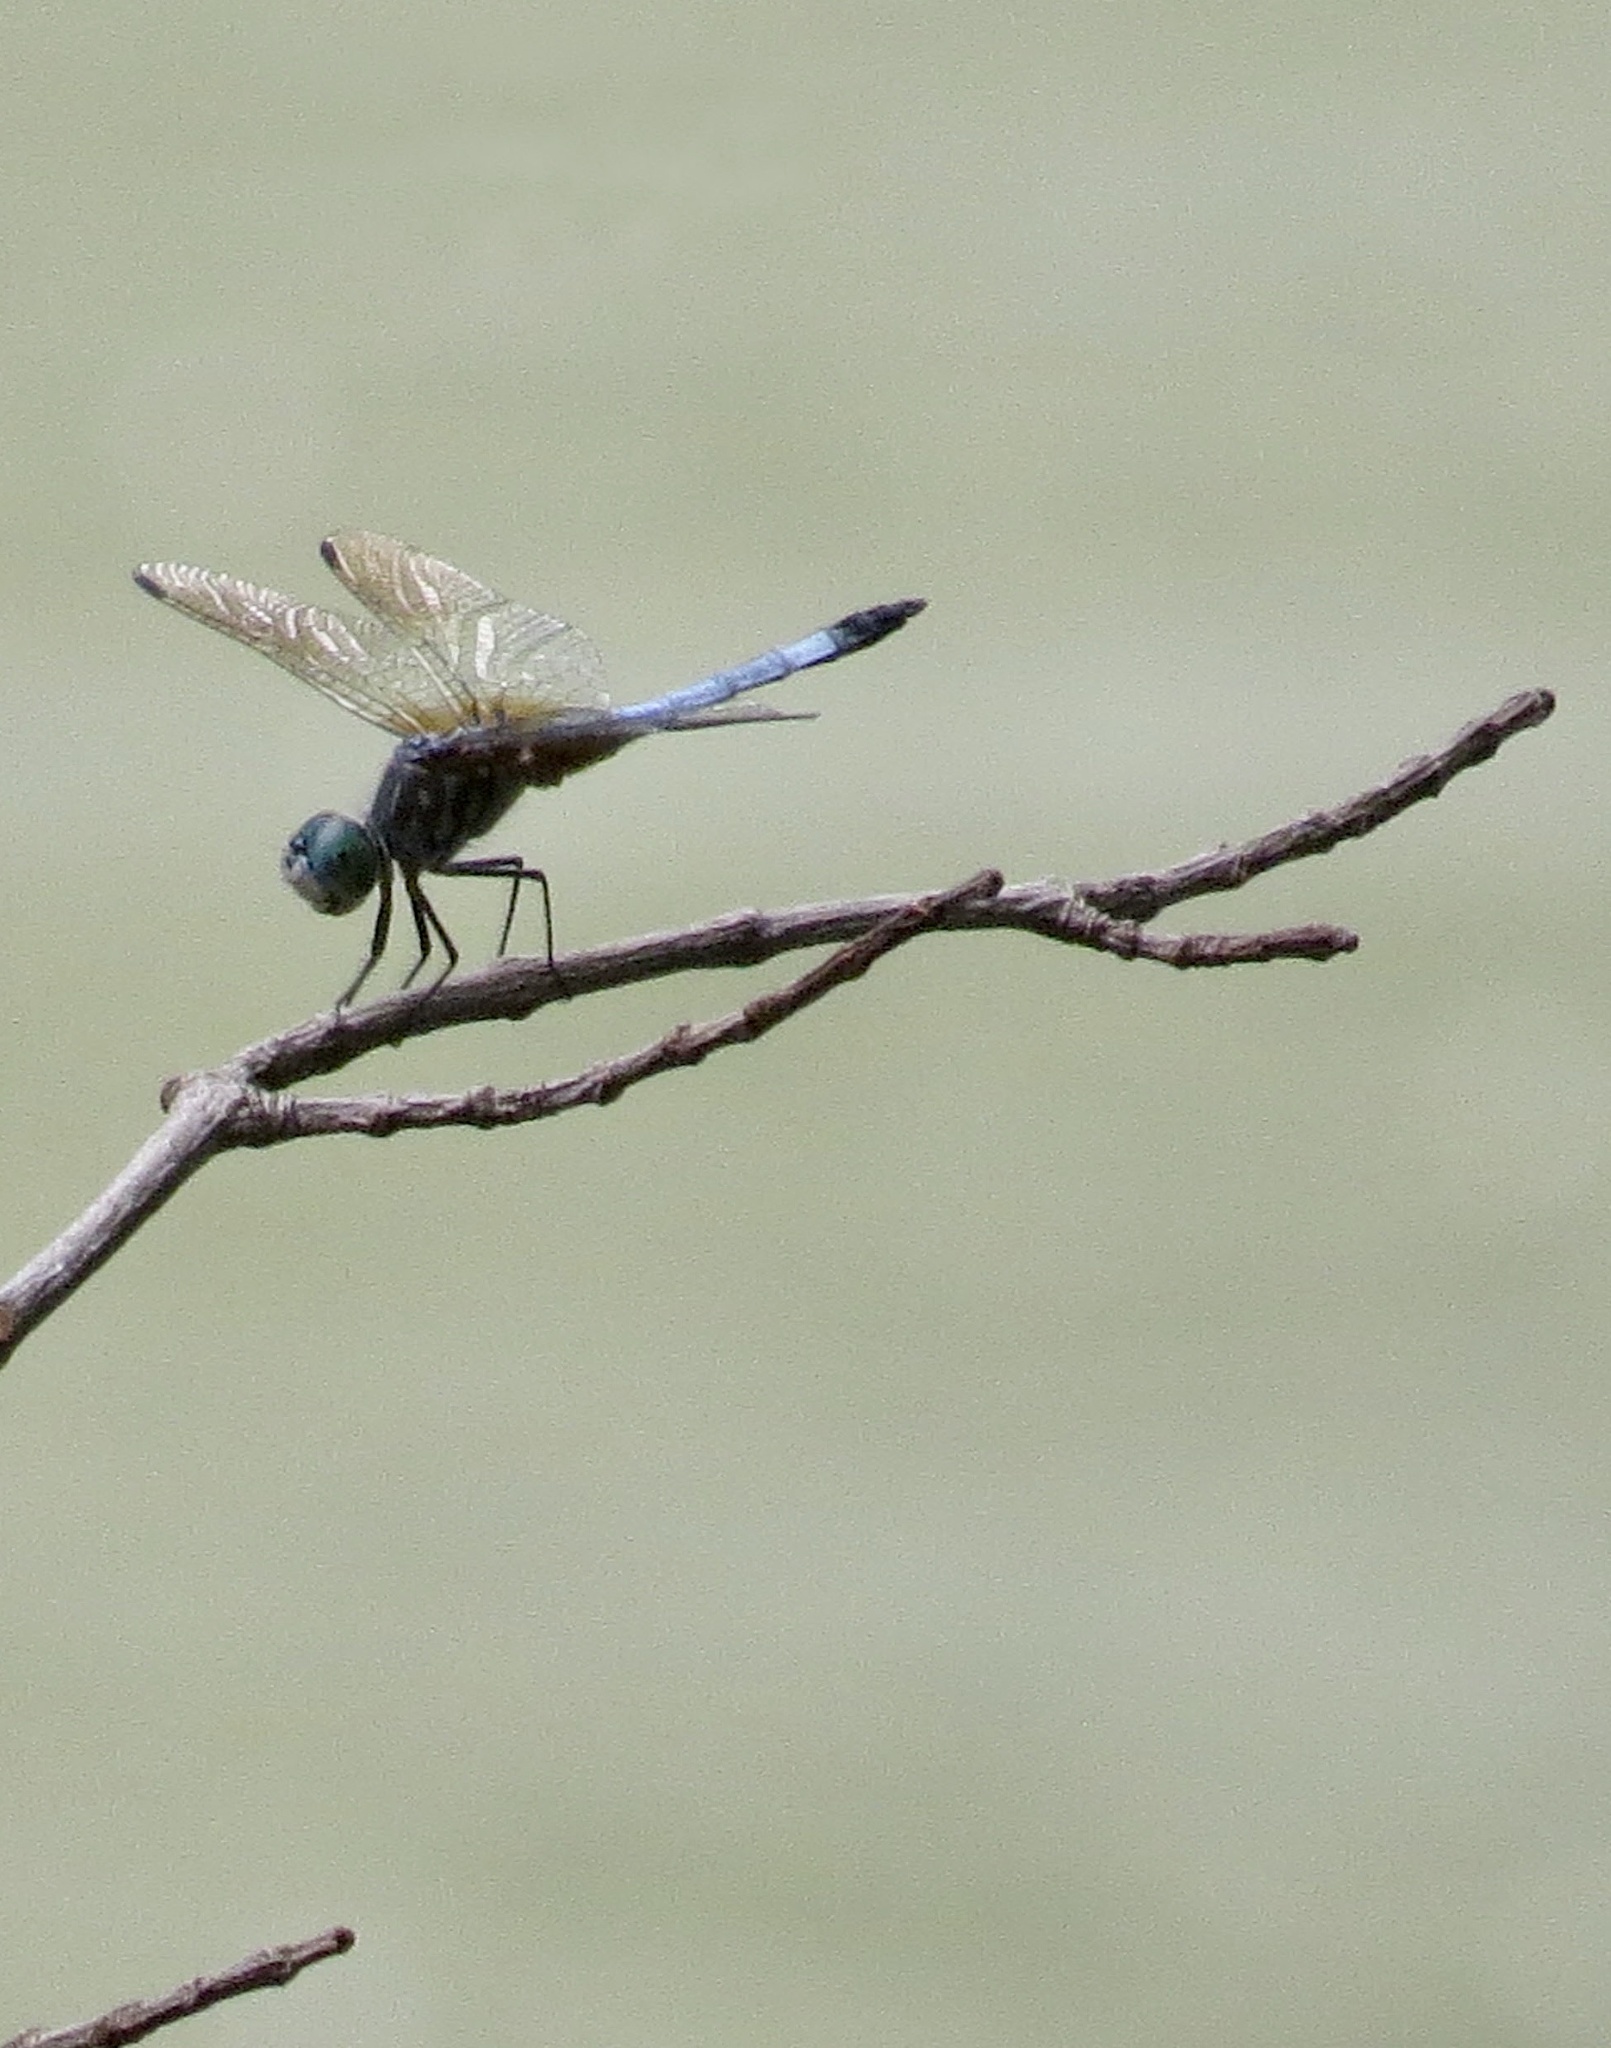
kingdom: Animalia
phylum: Arthropoda
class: Insecta
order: Odonata
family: Libellulidae
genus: Pachydiplax
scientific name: Pachydiplax longipennis
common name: Blue dasher
